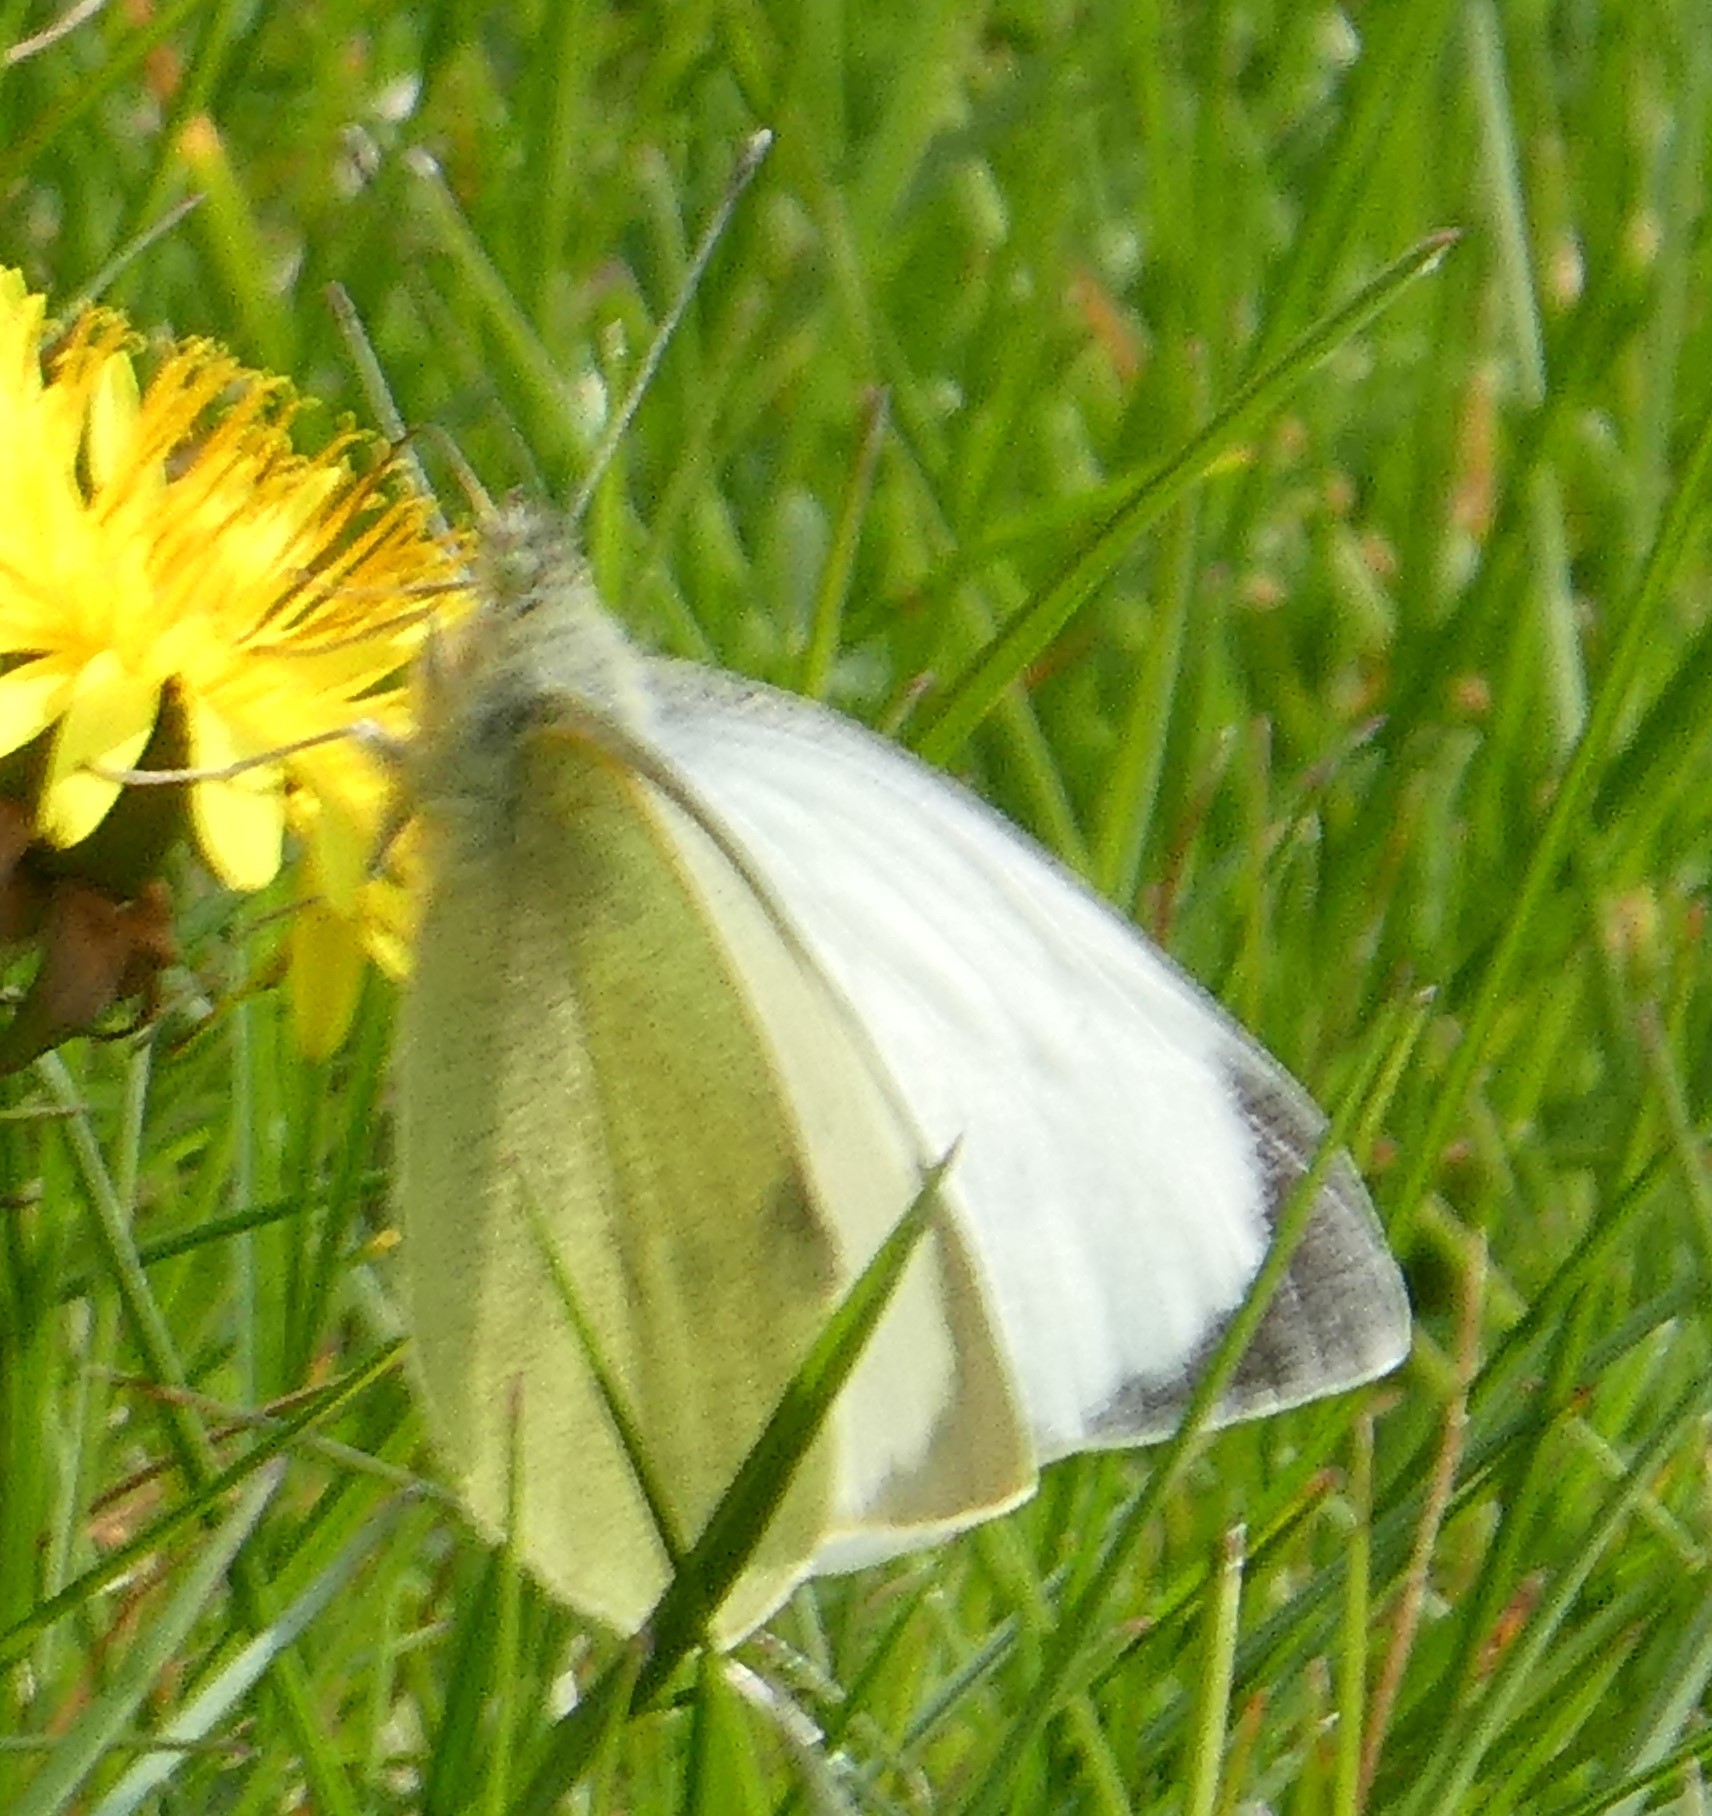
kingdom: Animalia
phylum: Arthropoda
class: Insecta
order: Lepidoptera
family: Pieridae
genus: Pieris
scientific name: Pieris brassicae
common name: Large white
